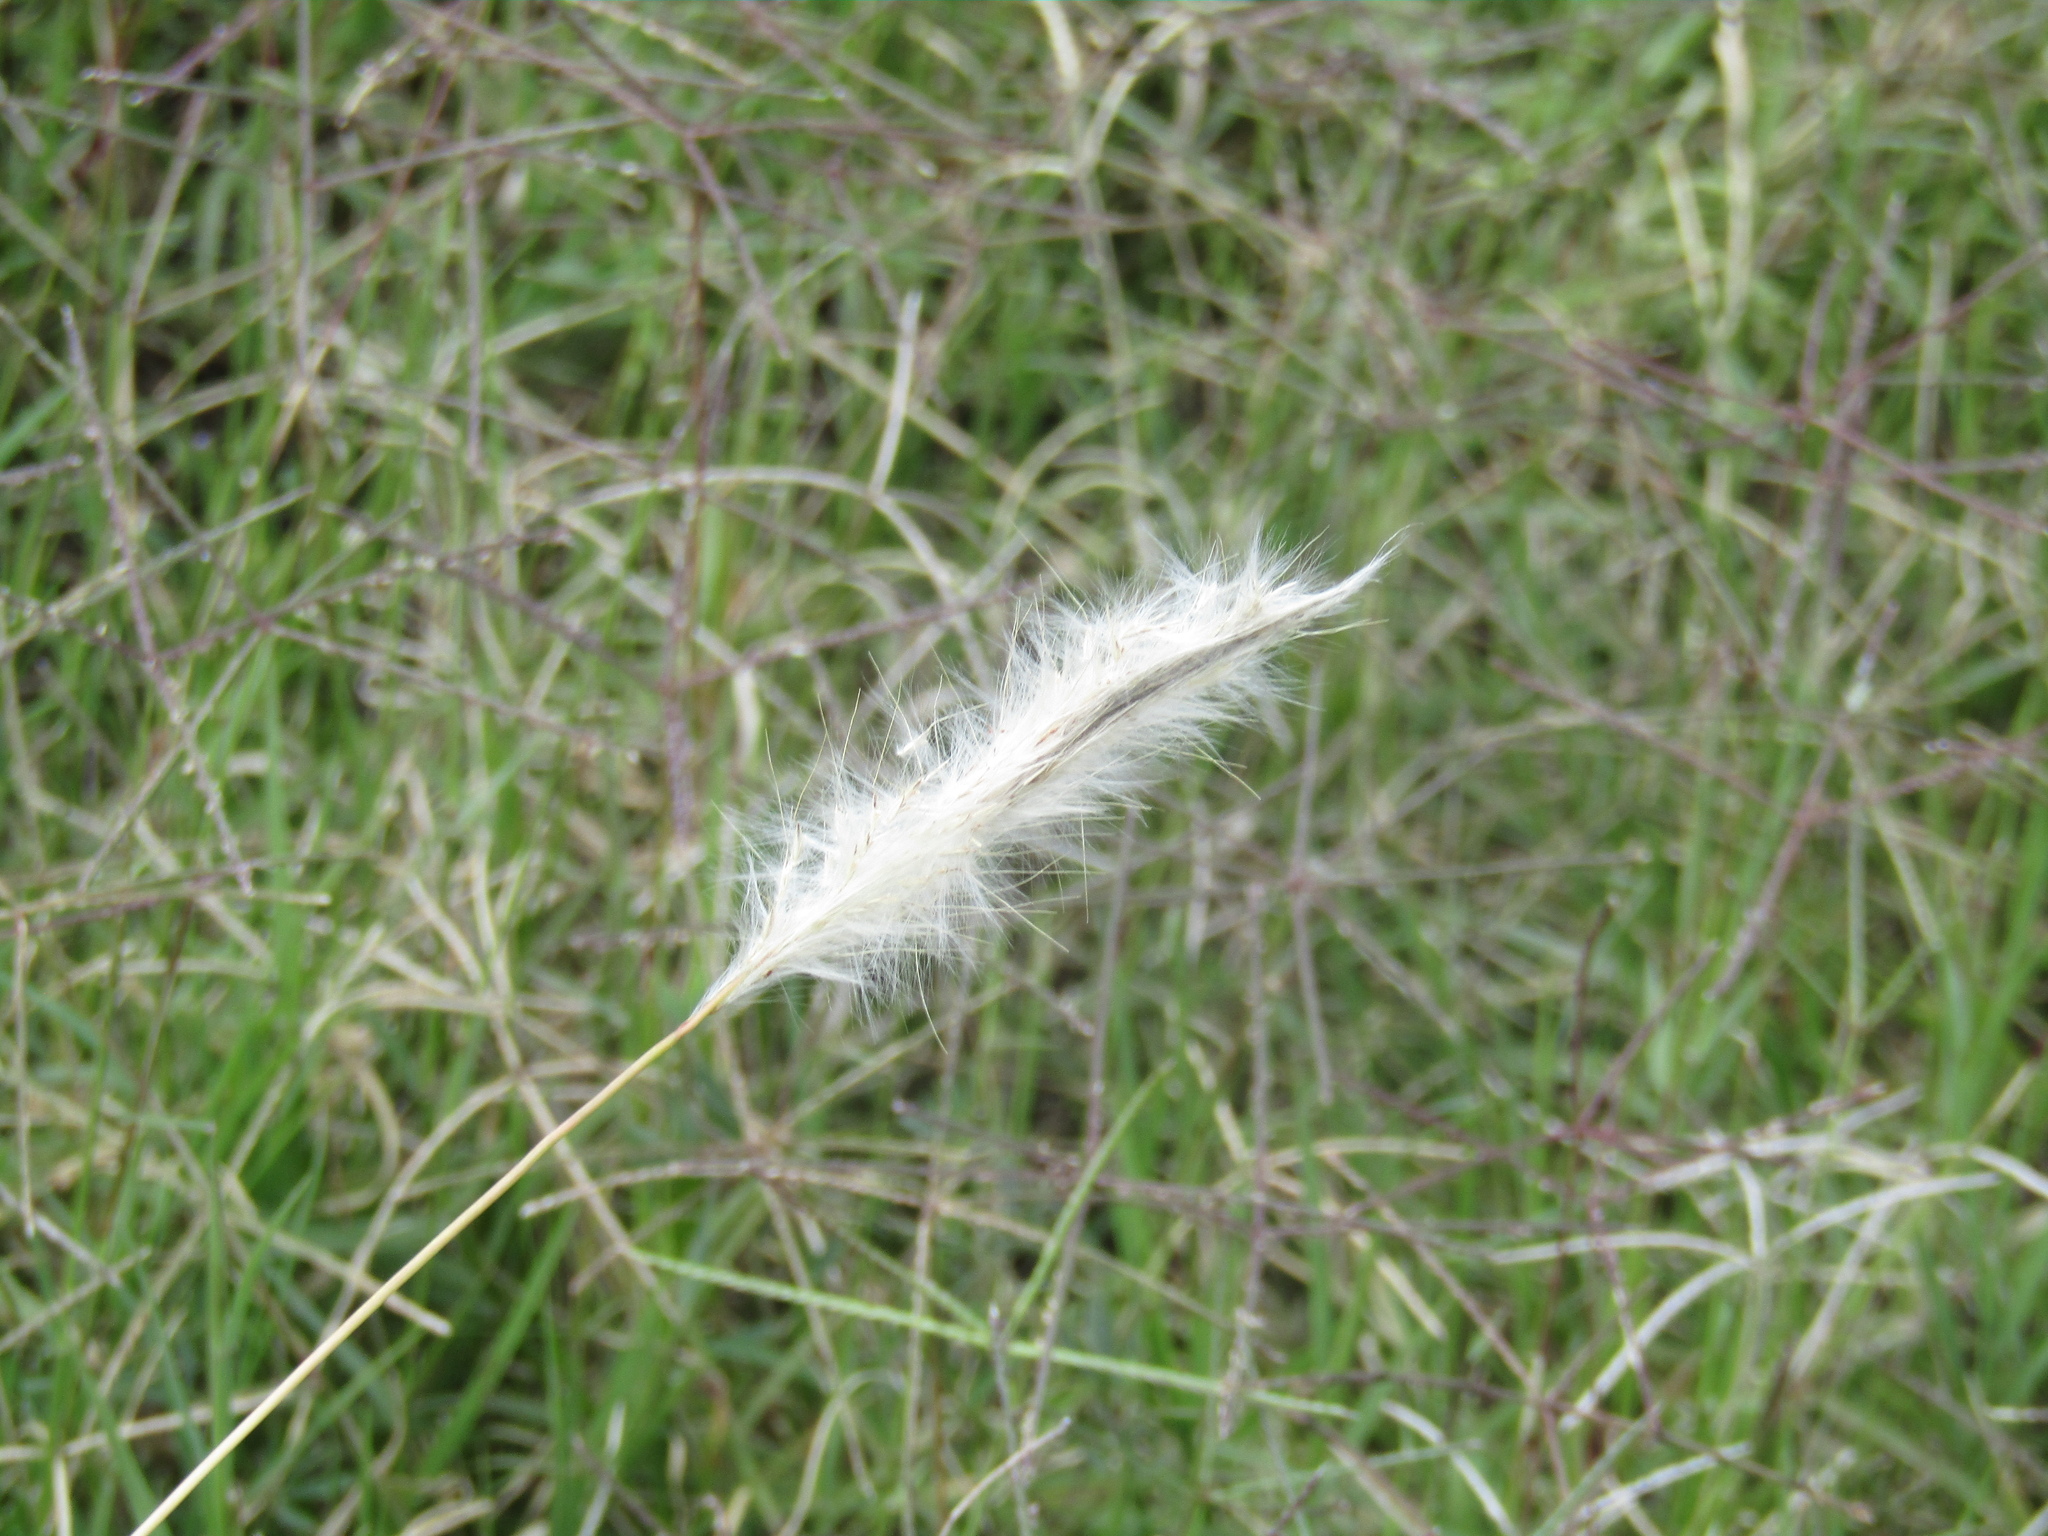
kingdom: Plantae
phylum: Tracheophyta
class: Liliopsida
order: Poales
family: Poaceae
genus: Bothriochloa
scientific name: Bothriochloa laguroides
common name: Silver bluestem
